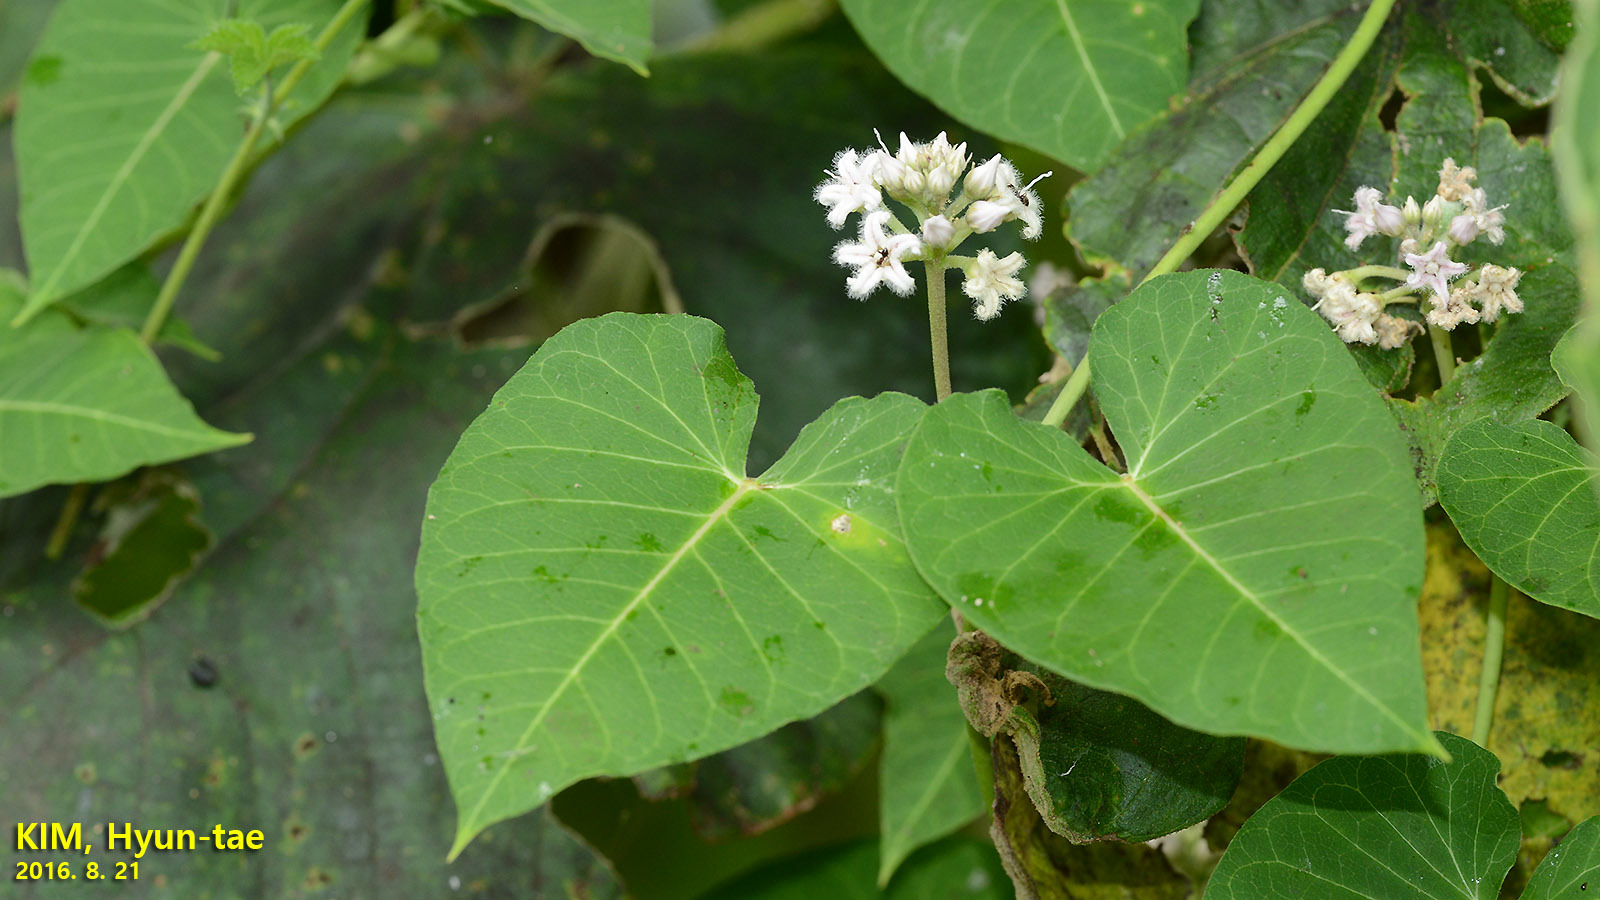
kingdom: Plantae
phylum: Tracheophyta
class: Magnoliopsida
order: Gentianales
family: Apocynaceae
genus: Cynanchum
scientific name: Cynanchum rostellatum
